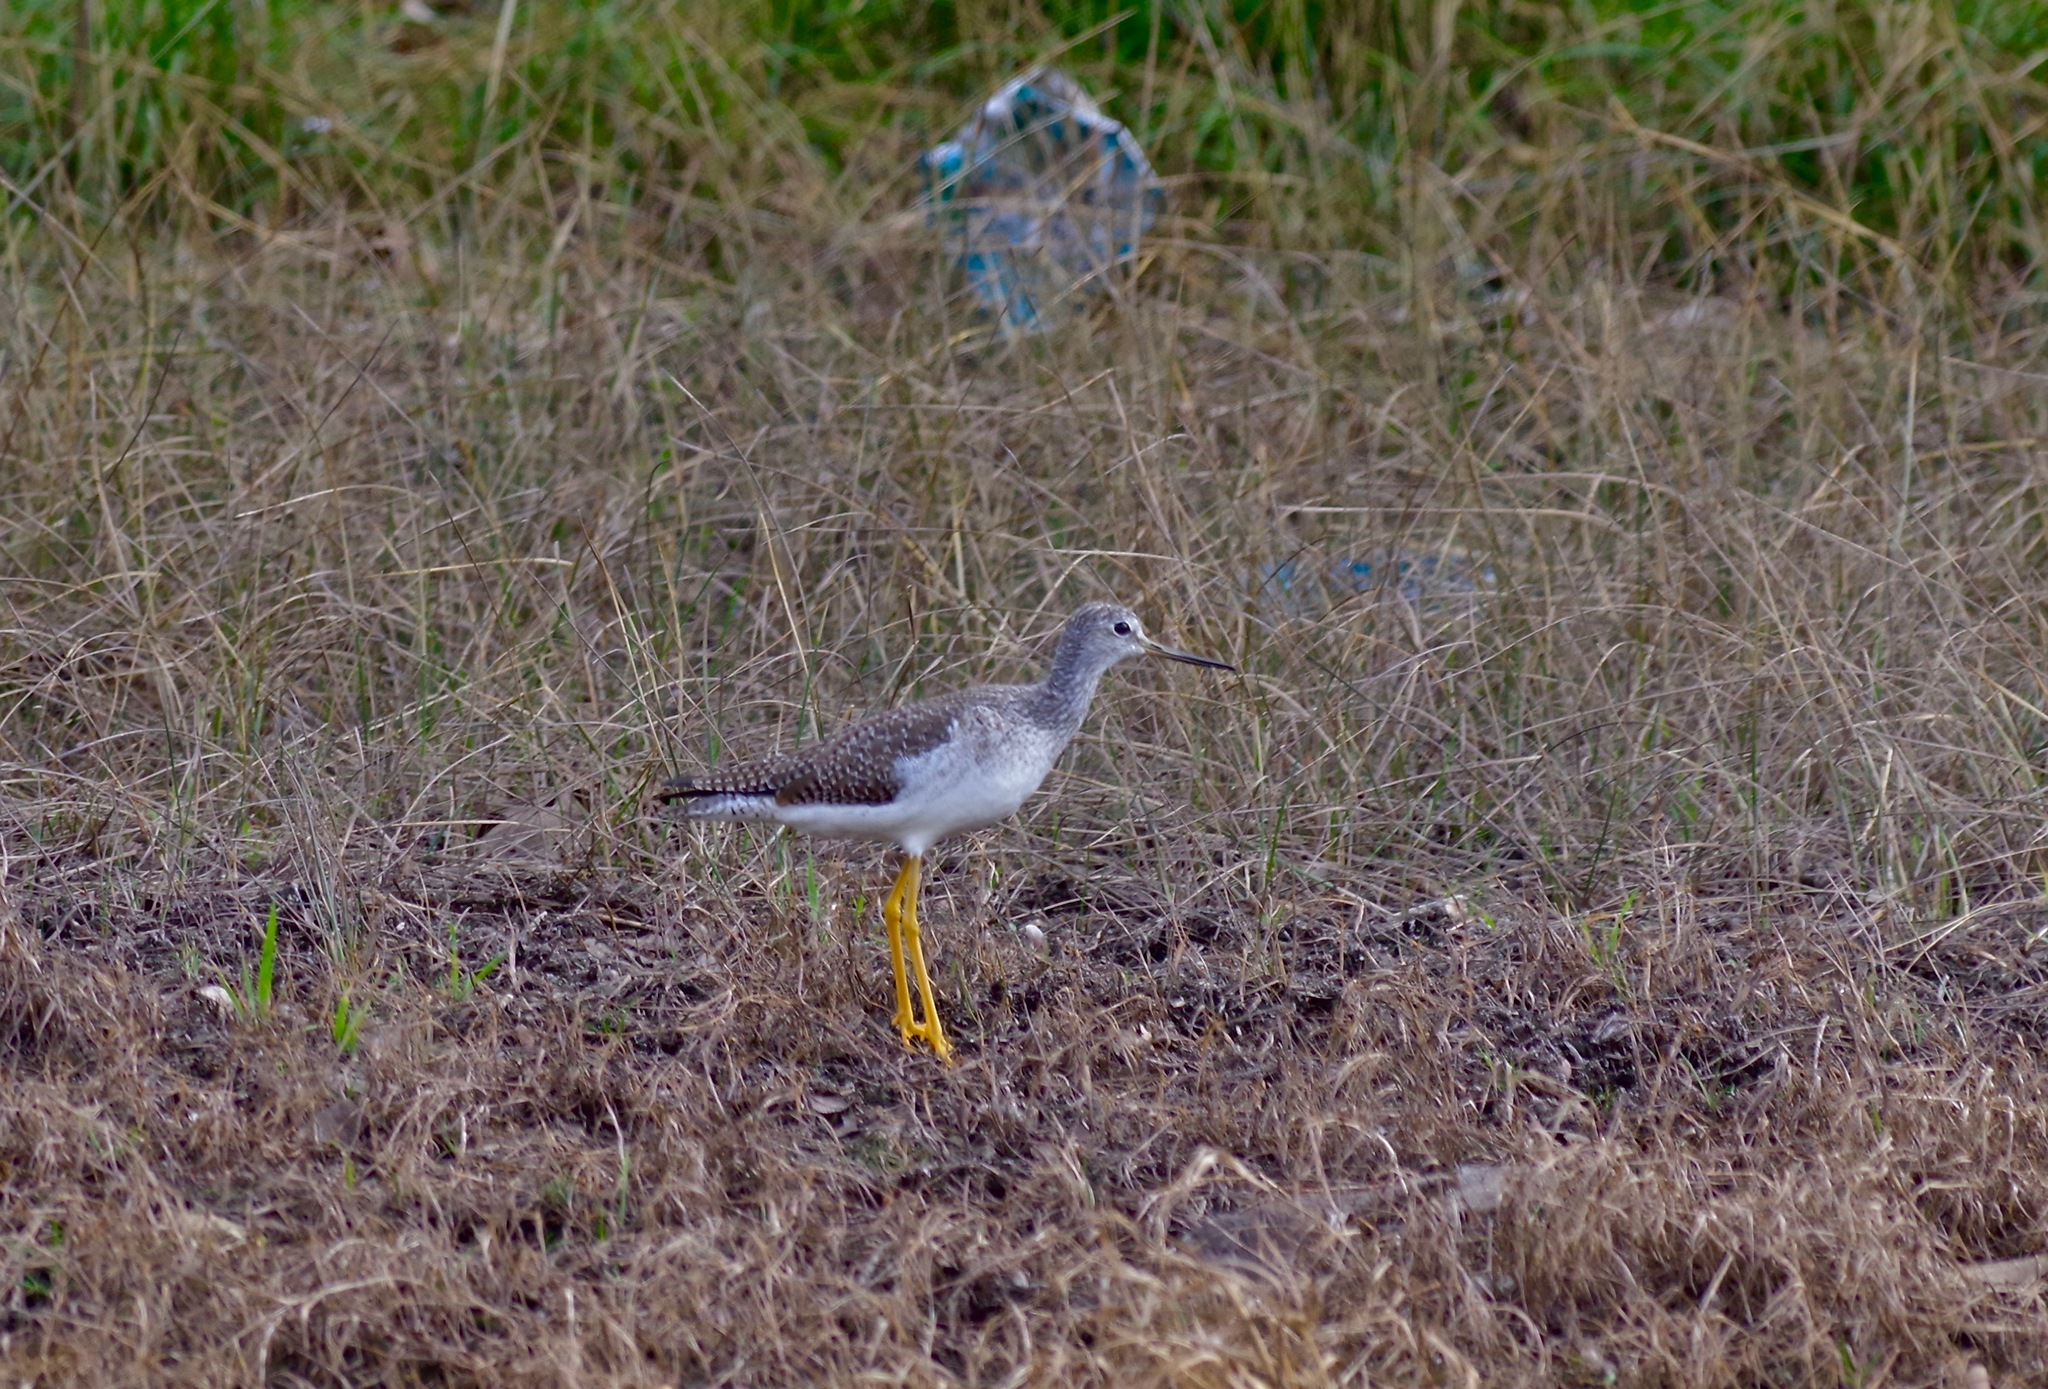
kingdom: Animalia
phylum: Chordata
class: Aves
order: Charadriiformes
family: Scolopacidae
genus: Tringa
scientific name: Tringa melanoleuca
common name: Greater yellowlegs
